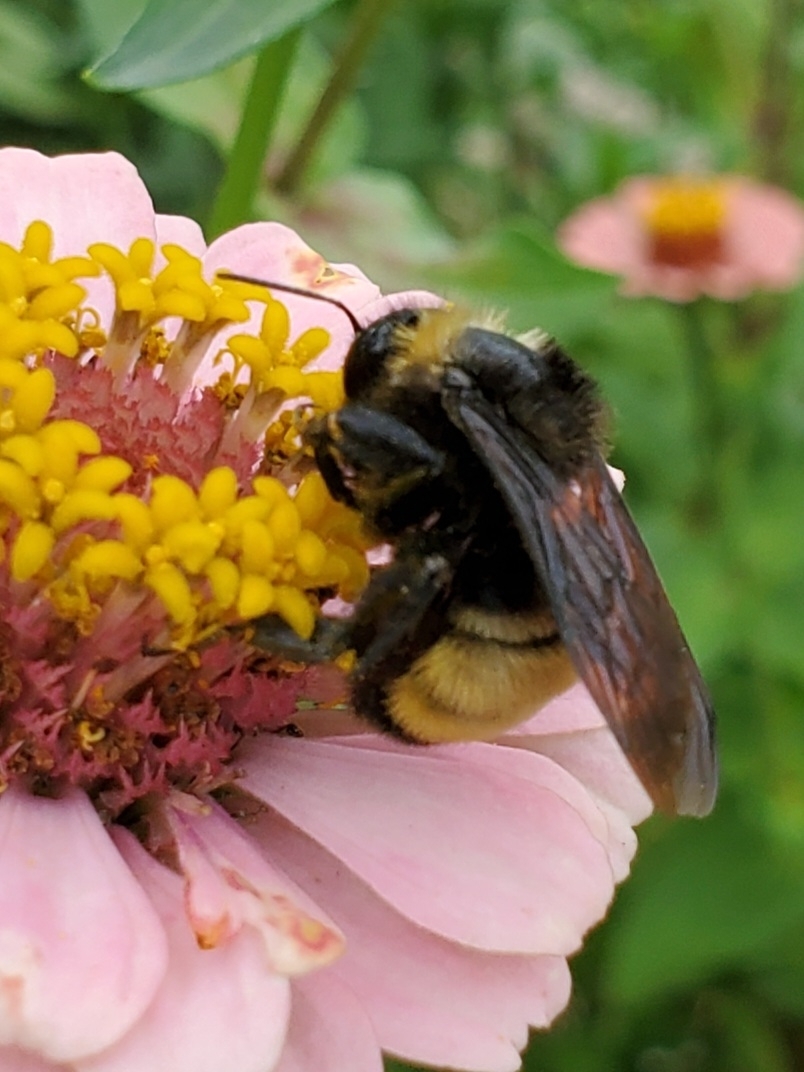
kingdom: Animalia
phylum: Arthropoda
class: Insecta
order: Hymenoptera
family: Apidae
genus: Bombus
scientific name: Bombus pensylvanicus
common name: Bumble bee
